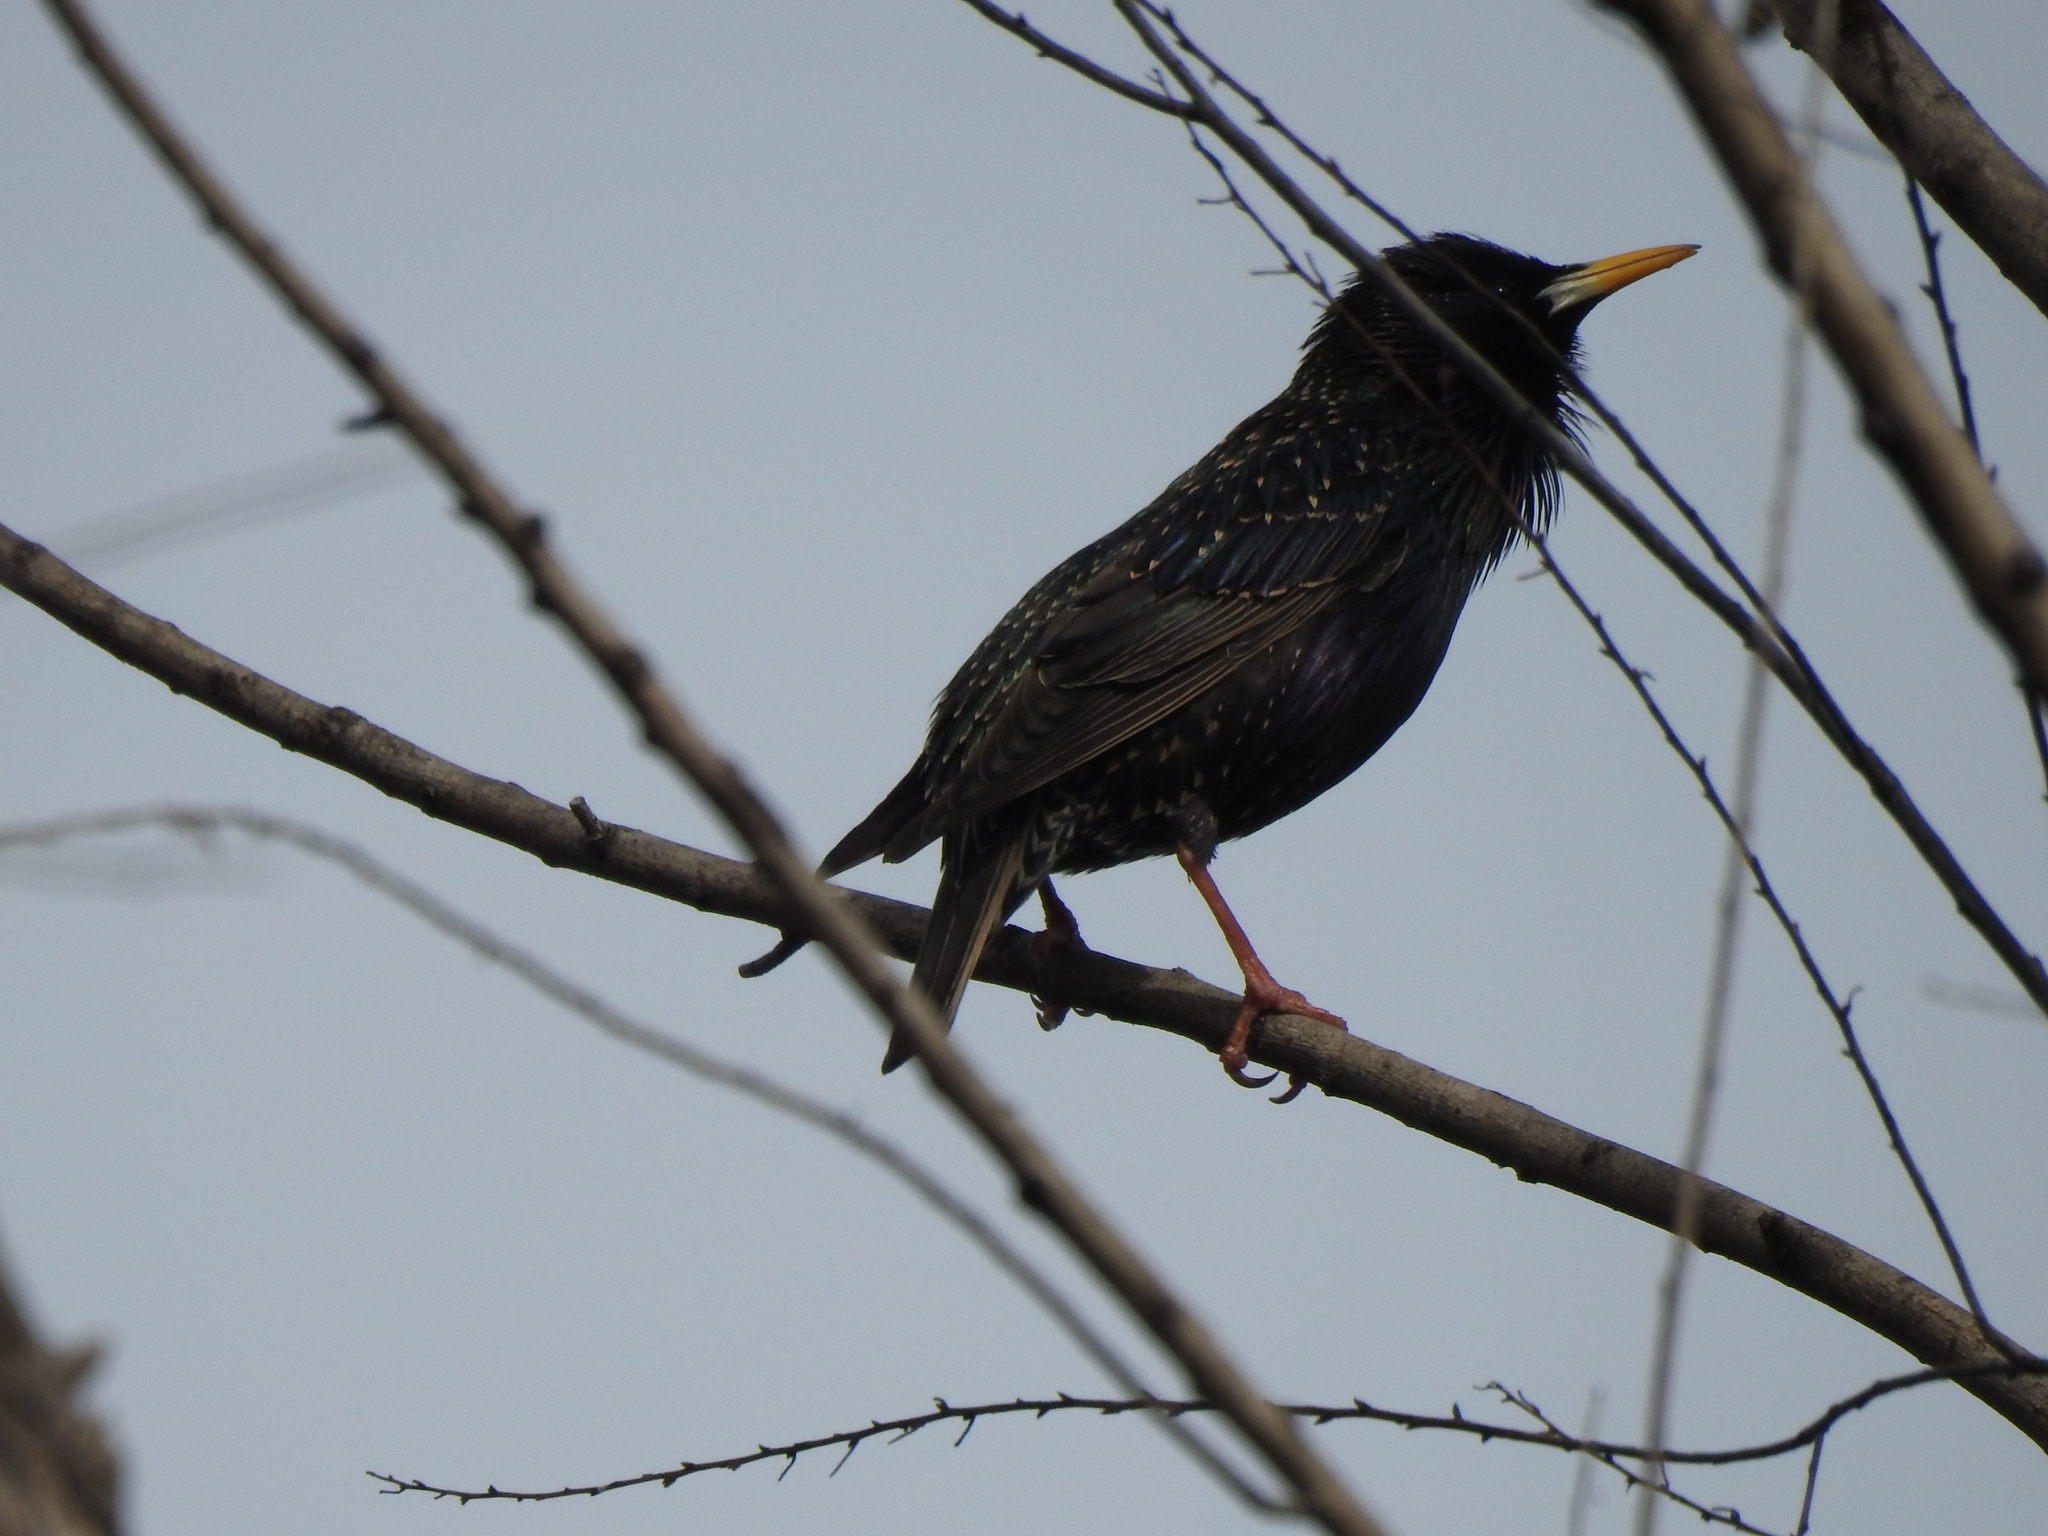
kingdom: Animalia
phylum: Chordata
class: Aves
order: Passeriformes
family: Sturnidae
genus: Sturnus
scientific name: Sturnus vulgaris
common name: Common starling
